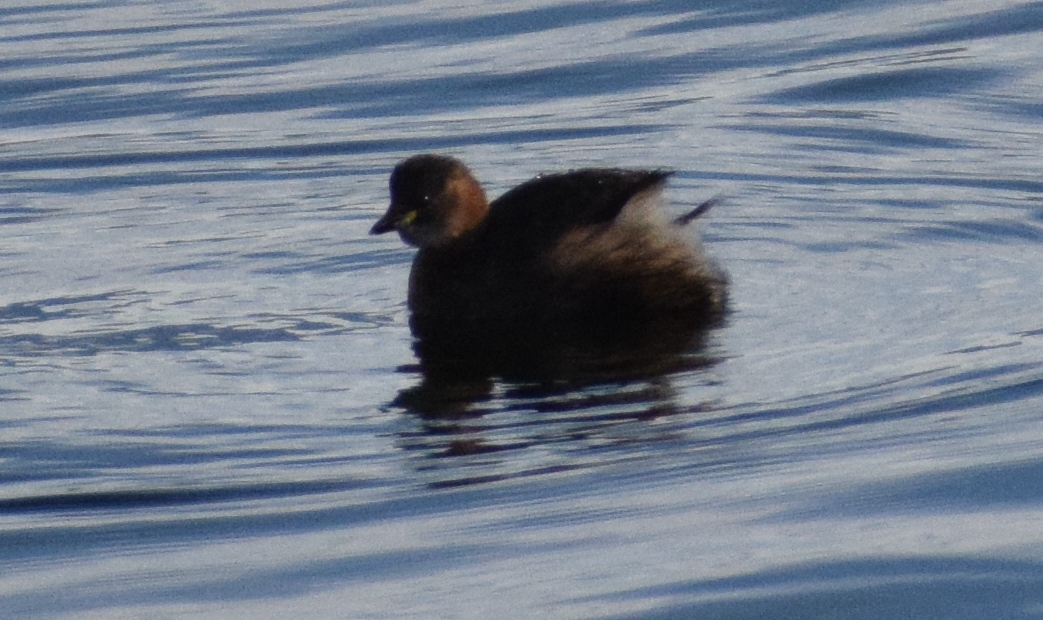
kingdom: Animalia
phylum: Chordata
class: Aves
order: Podicipediformes
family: Podicipedidae
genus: Tachybaptus
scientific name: Tachybaptus ruficollis
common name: Little grebe
